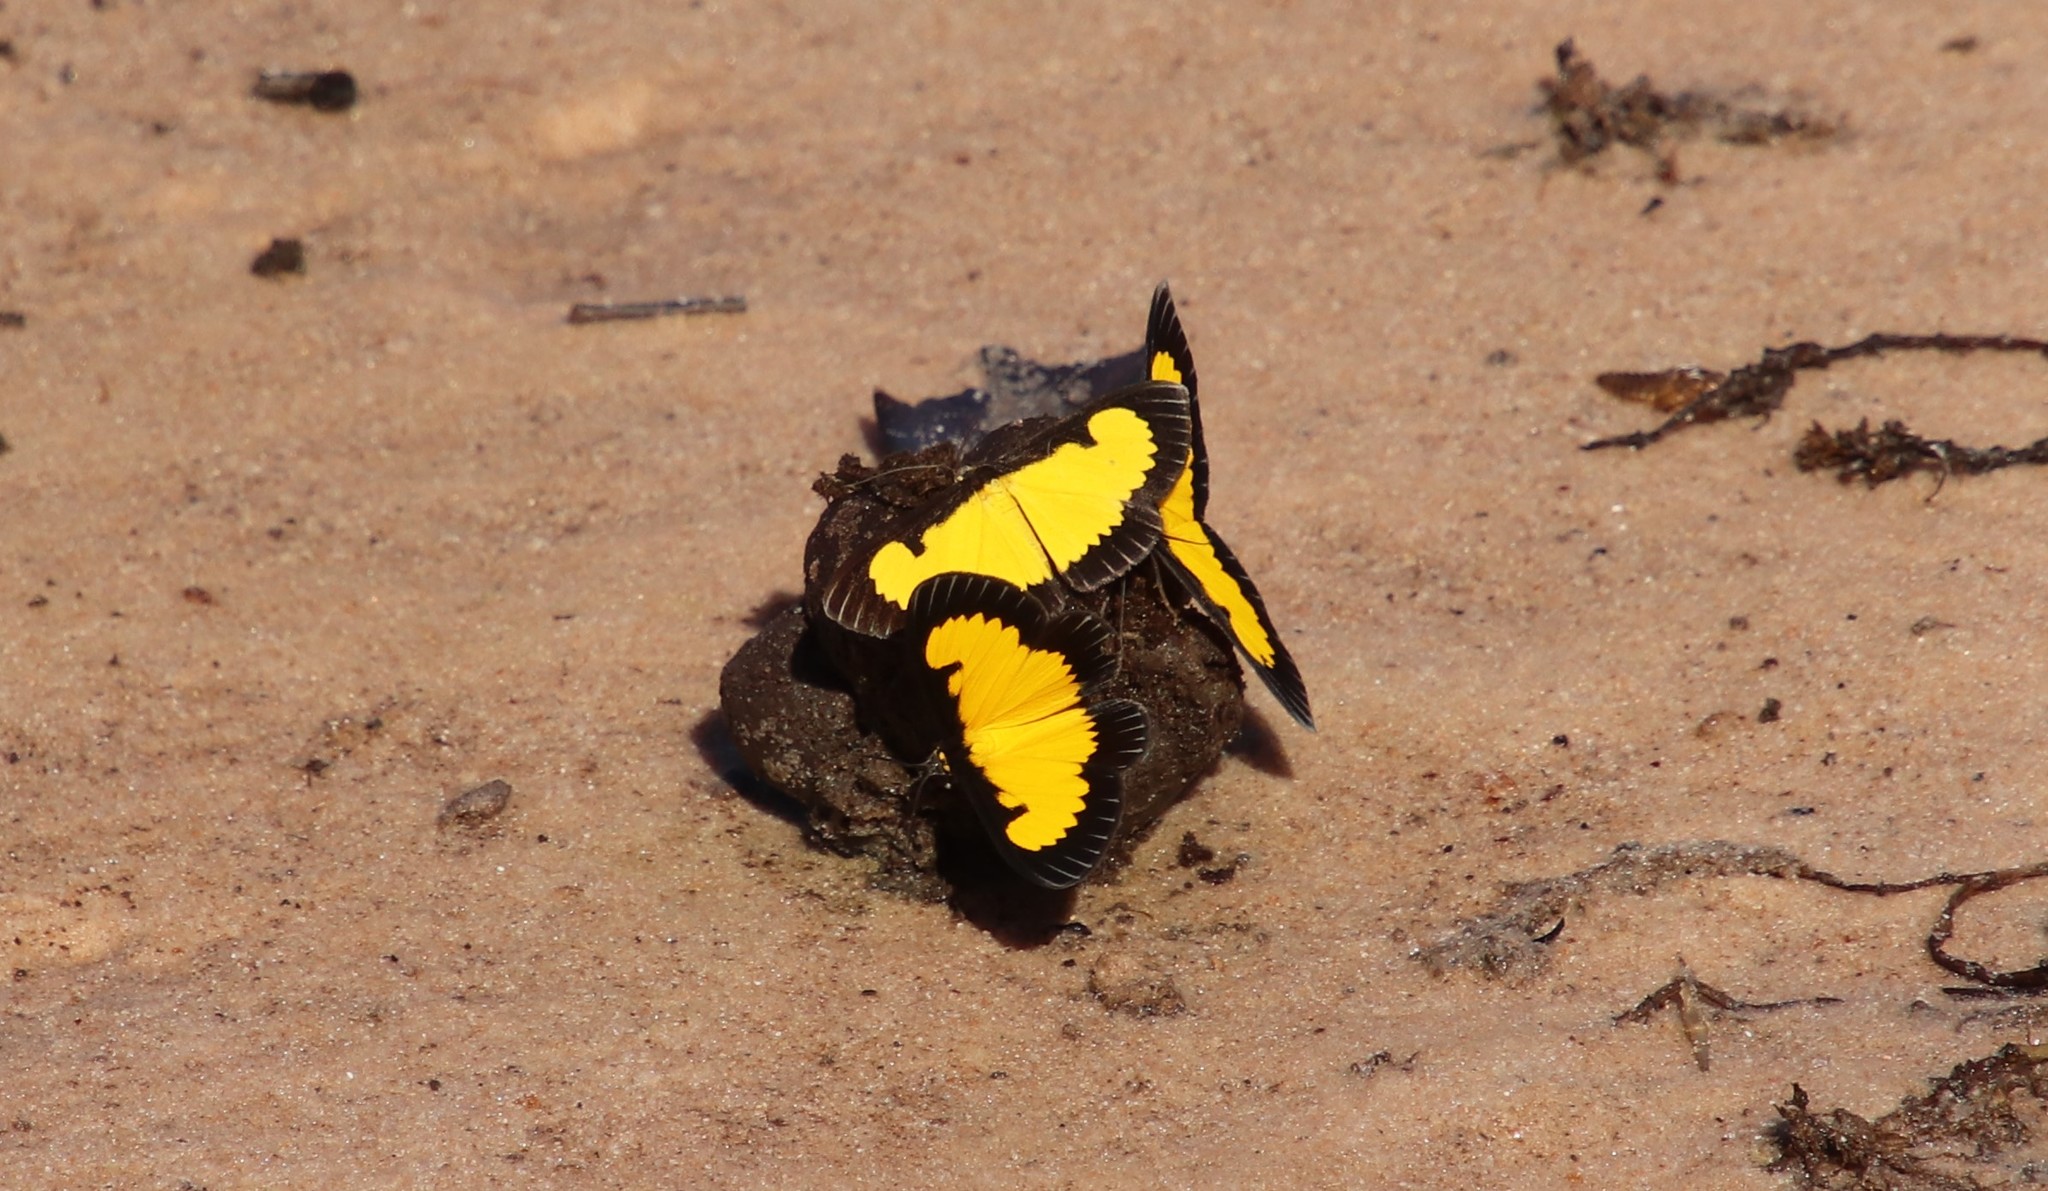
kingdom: Animalia
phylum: Arthropoda
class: Insecta
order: Lepidoptera
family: Geometridae
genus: Xanthyris
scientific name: Xanthyris flaveolata
